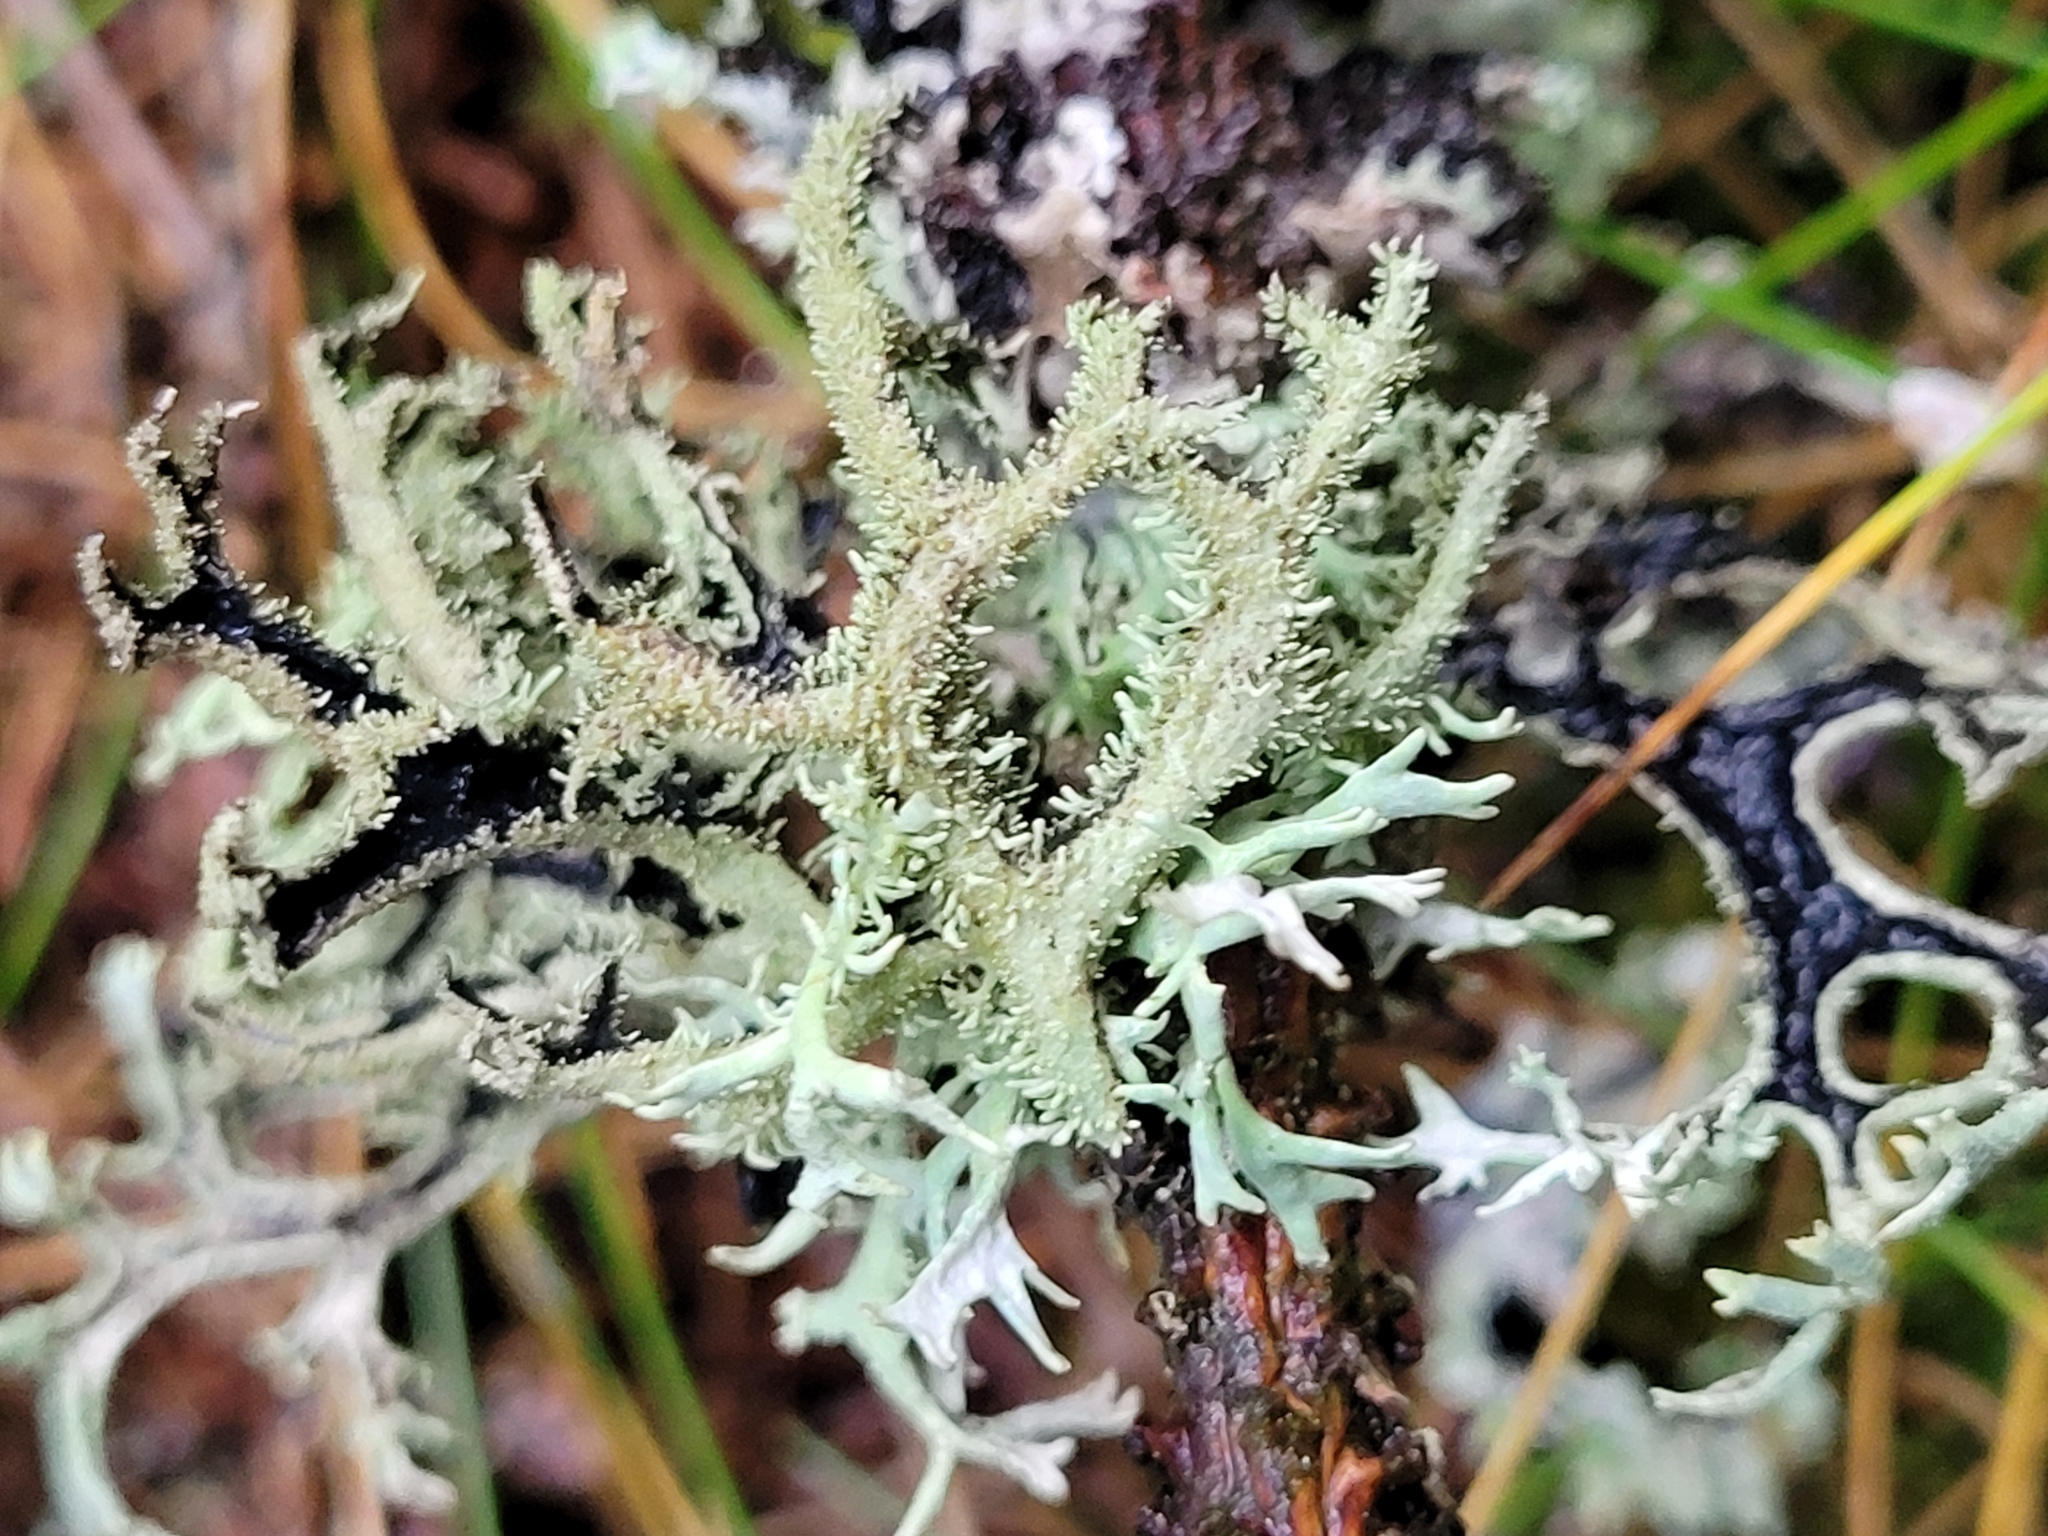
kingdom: Fungi
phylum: Ascomycota
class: Lecanoromycetes
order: Lecanorales
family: Parmeliaceae
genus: Pseudevernia
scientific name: Pseudevernia furfuracea
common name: Tree moss
